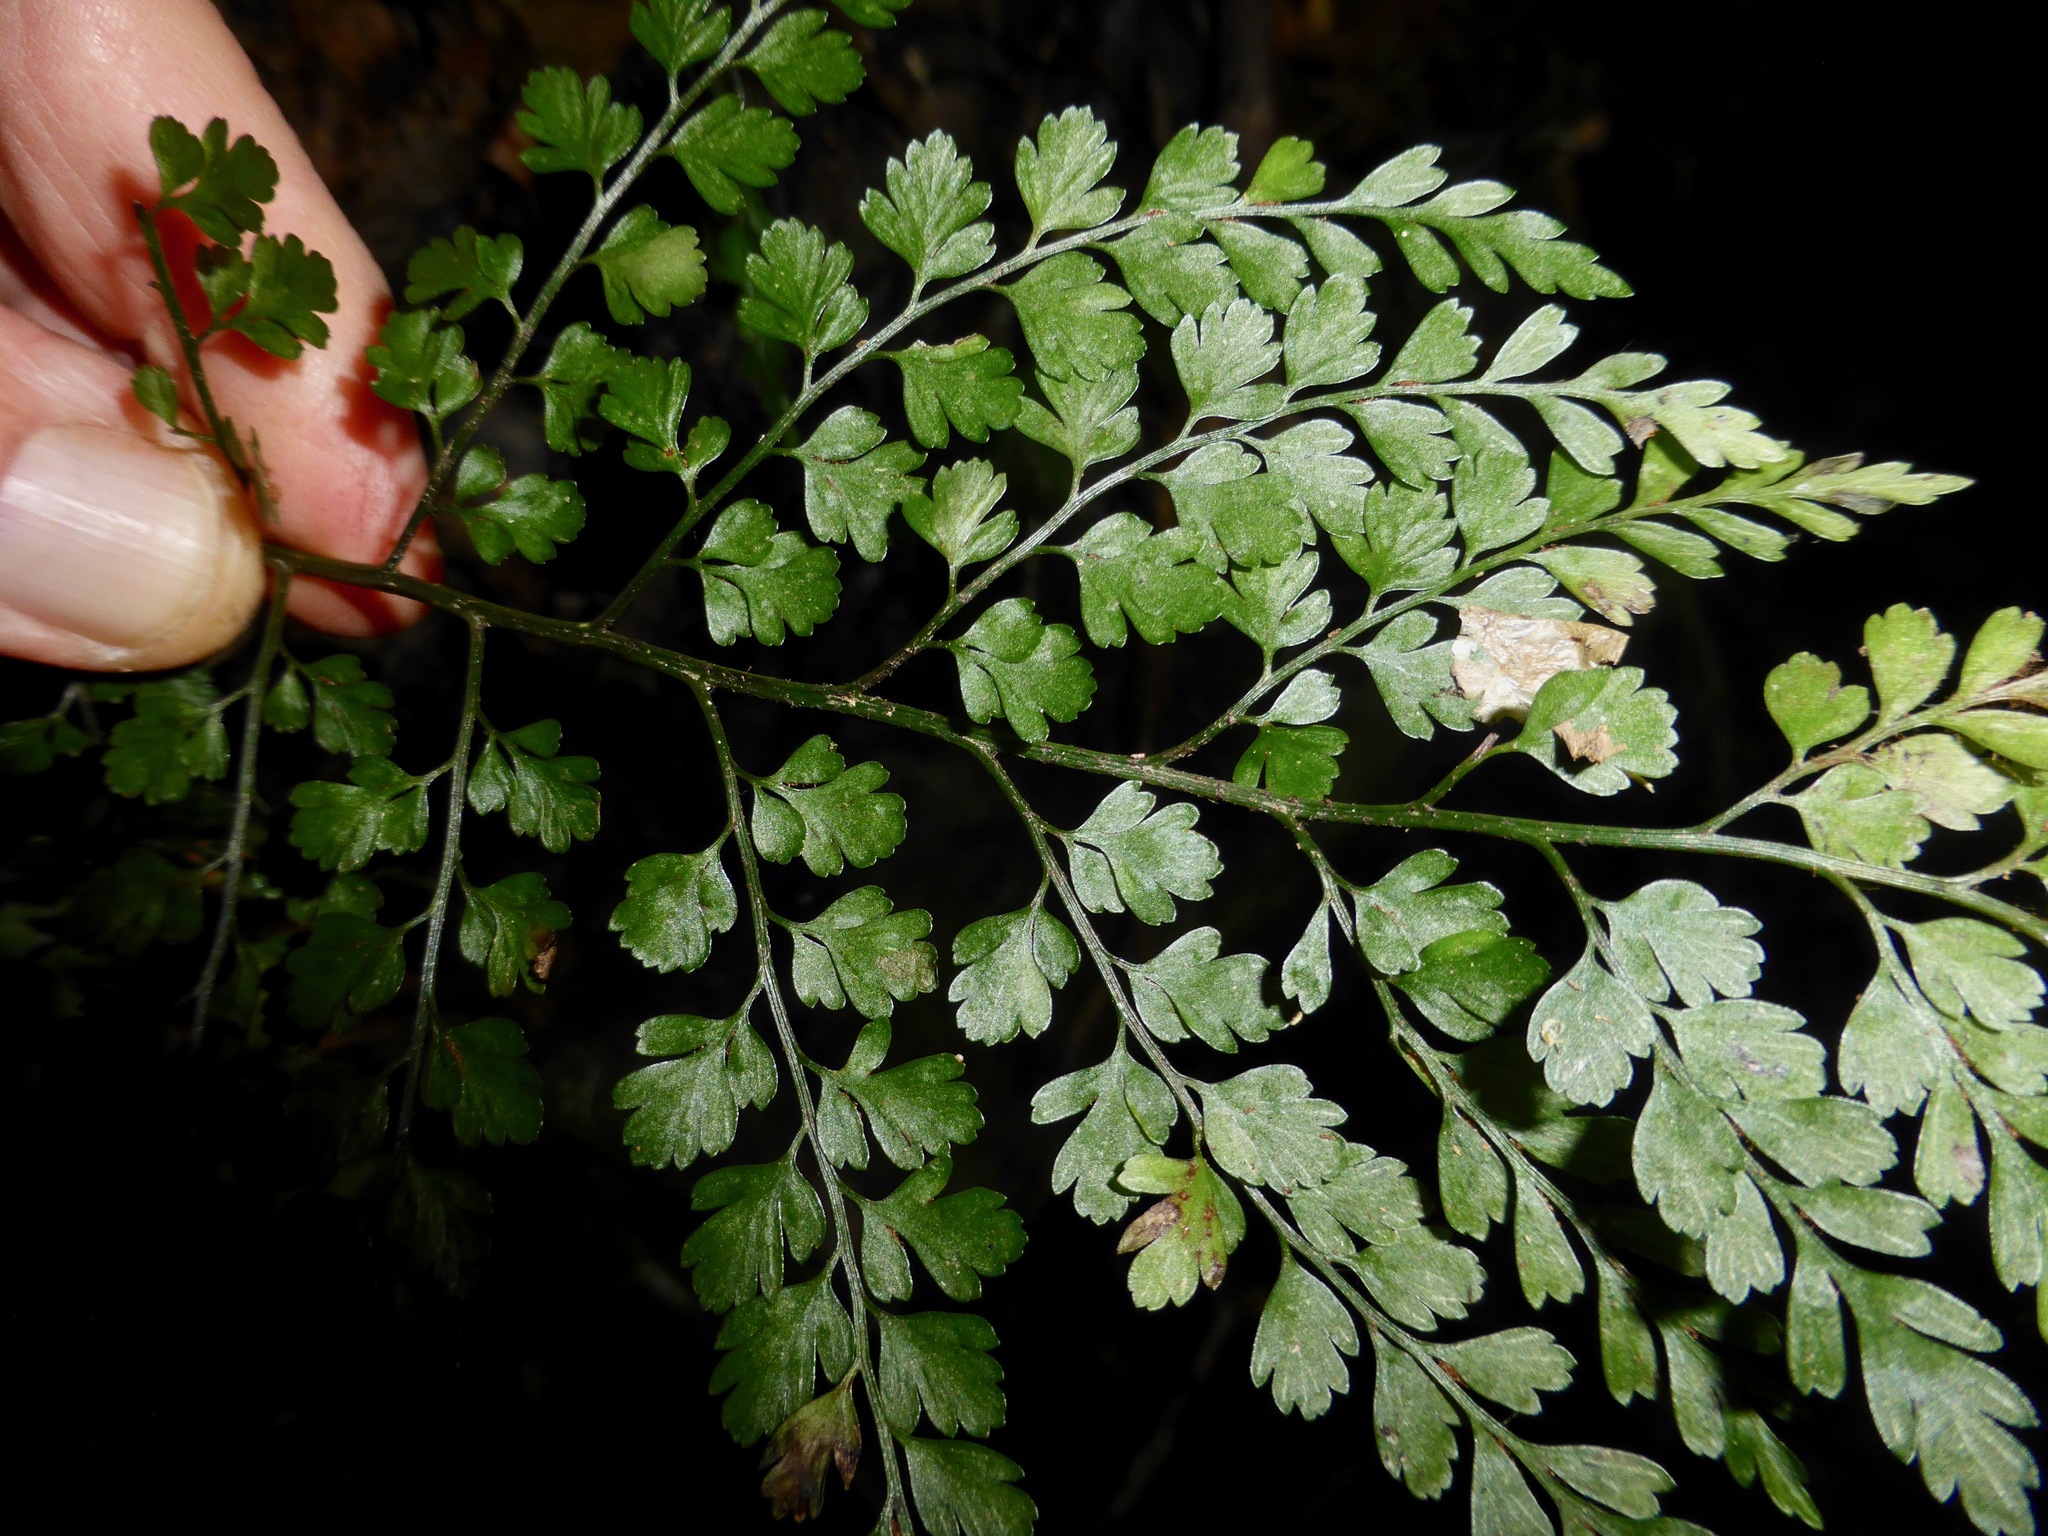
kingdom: Plantae
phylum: Tracheophyta
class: Polypodiopsida
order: Polypodiales
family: Aspleniaceae
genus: Asplenium
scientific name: Asplenium hookerianum
